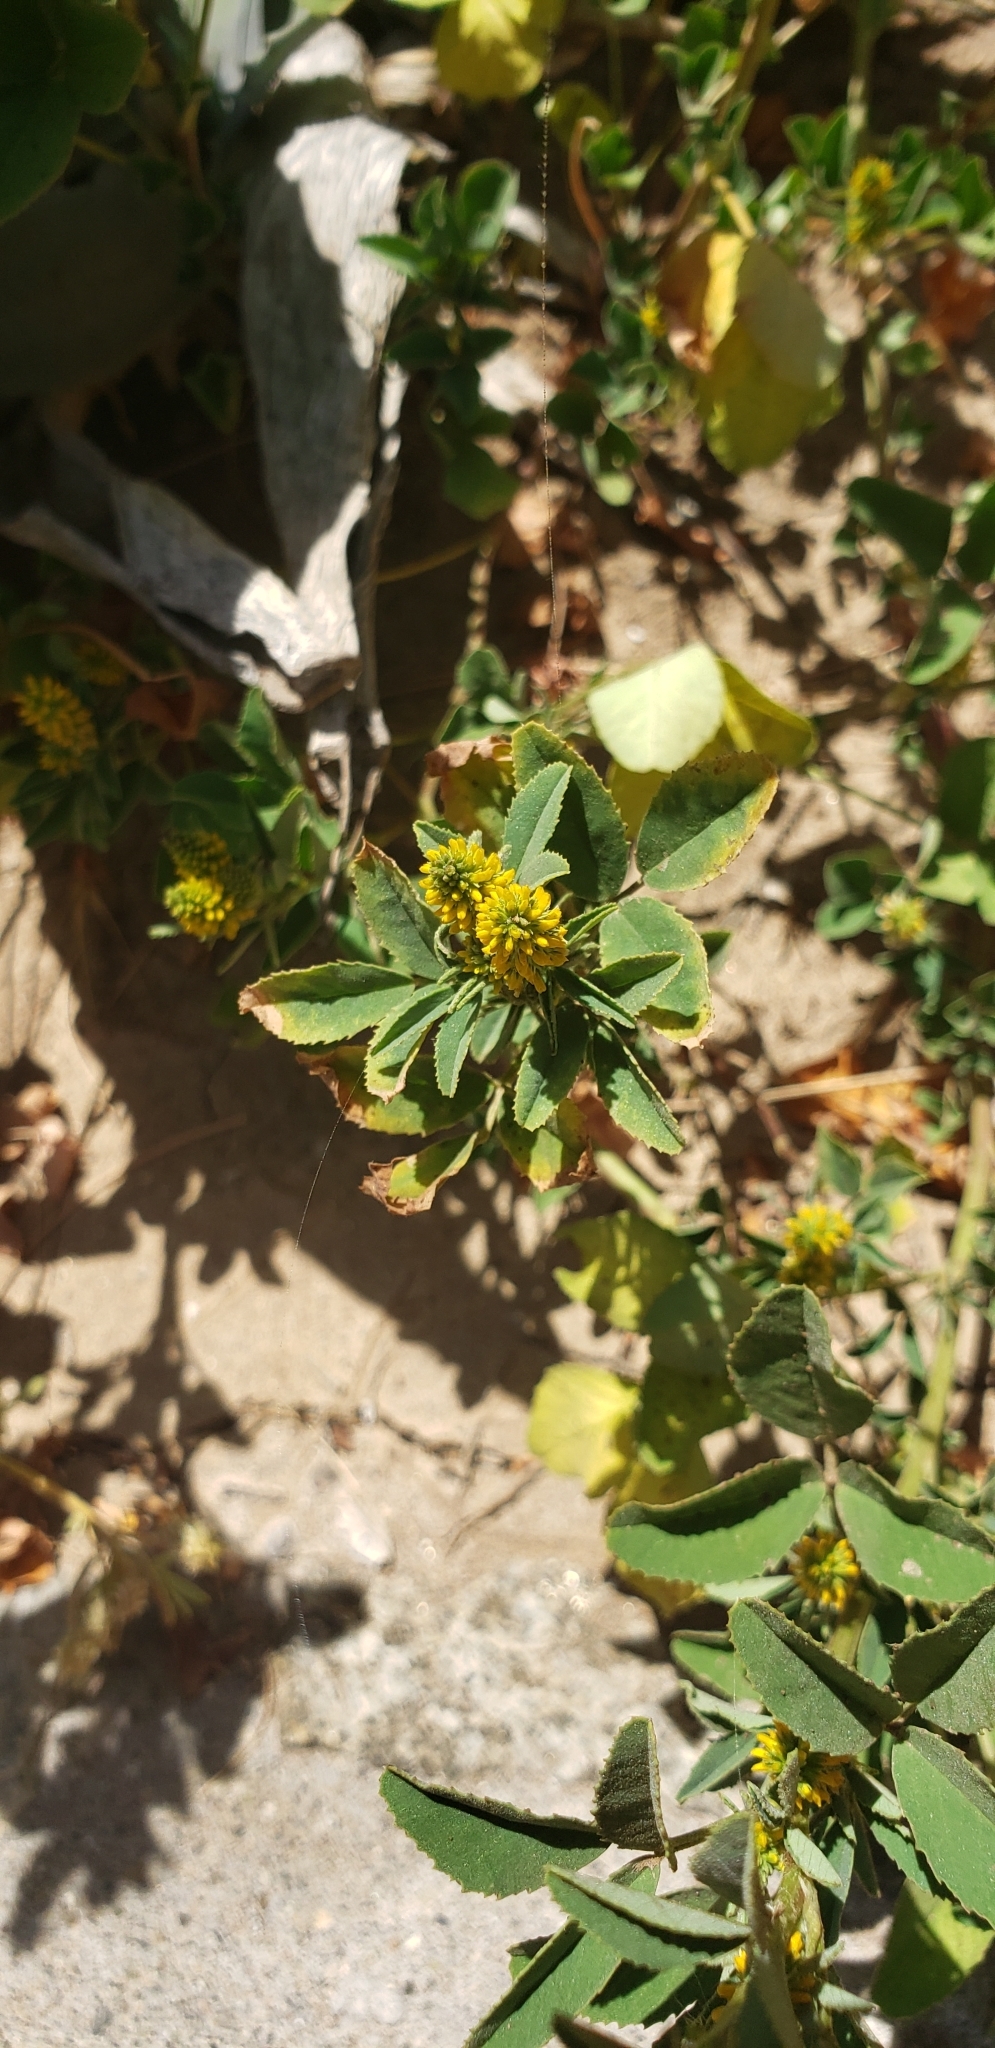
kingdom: Plantae
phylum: Tracheophyta
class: Magnoliopsida
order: Fabales
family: Fabaceae
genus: Melilotus
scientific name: Melilotus indicus
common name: Small melilot
